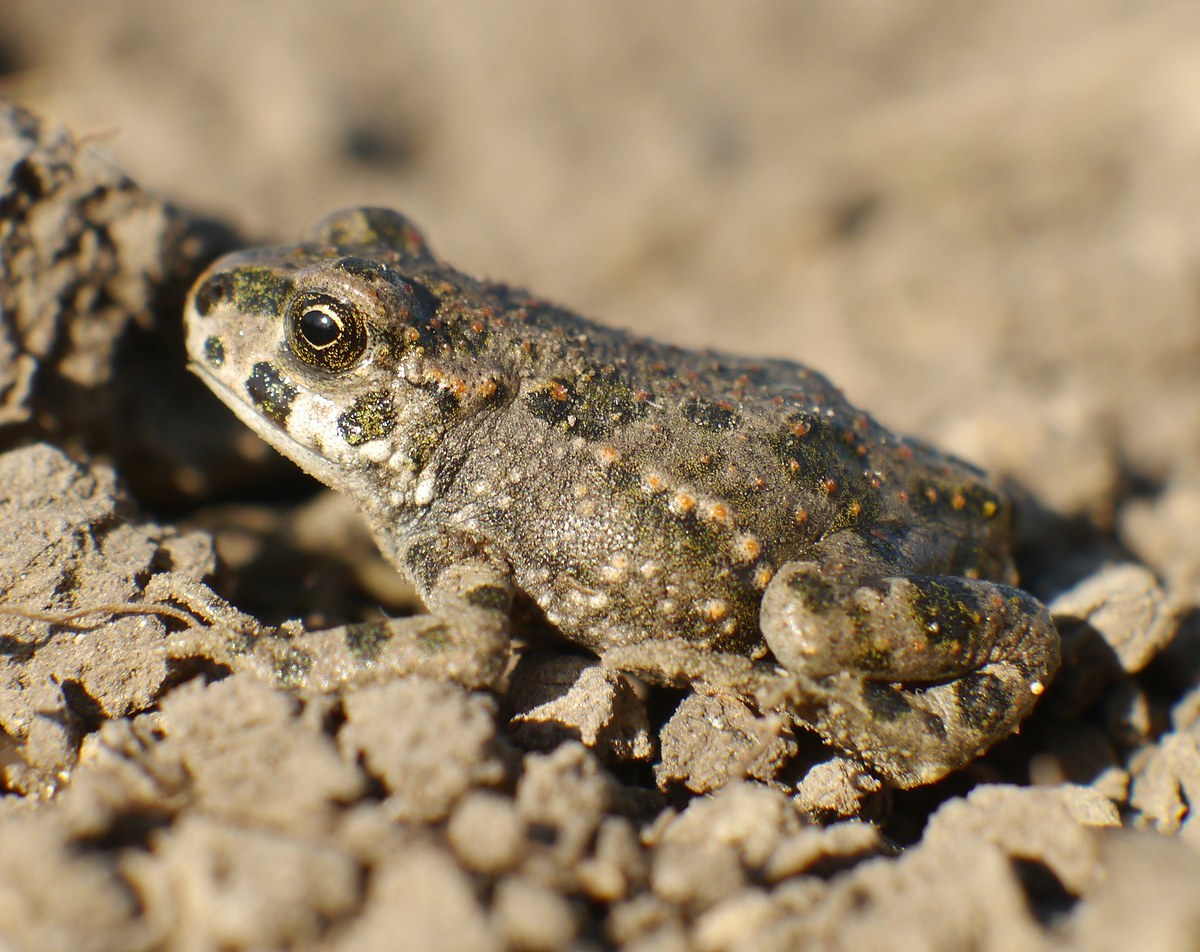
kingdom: Animalia
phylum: Chordata
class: Amphibia
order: Anura
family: Bufonidae
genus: Bufotes
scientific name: Bufotes viridis
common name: European green toad
